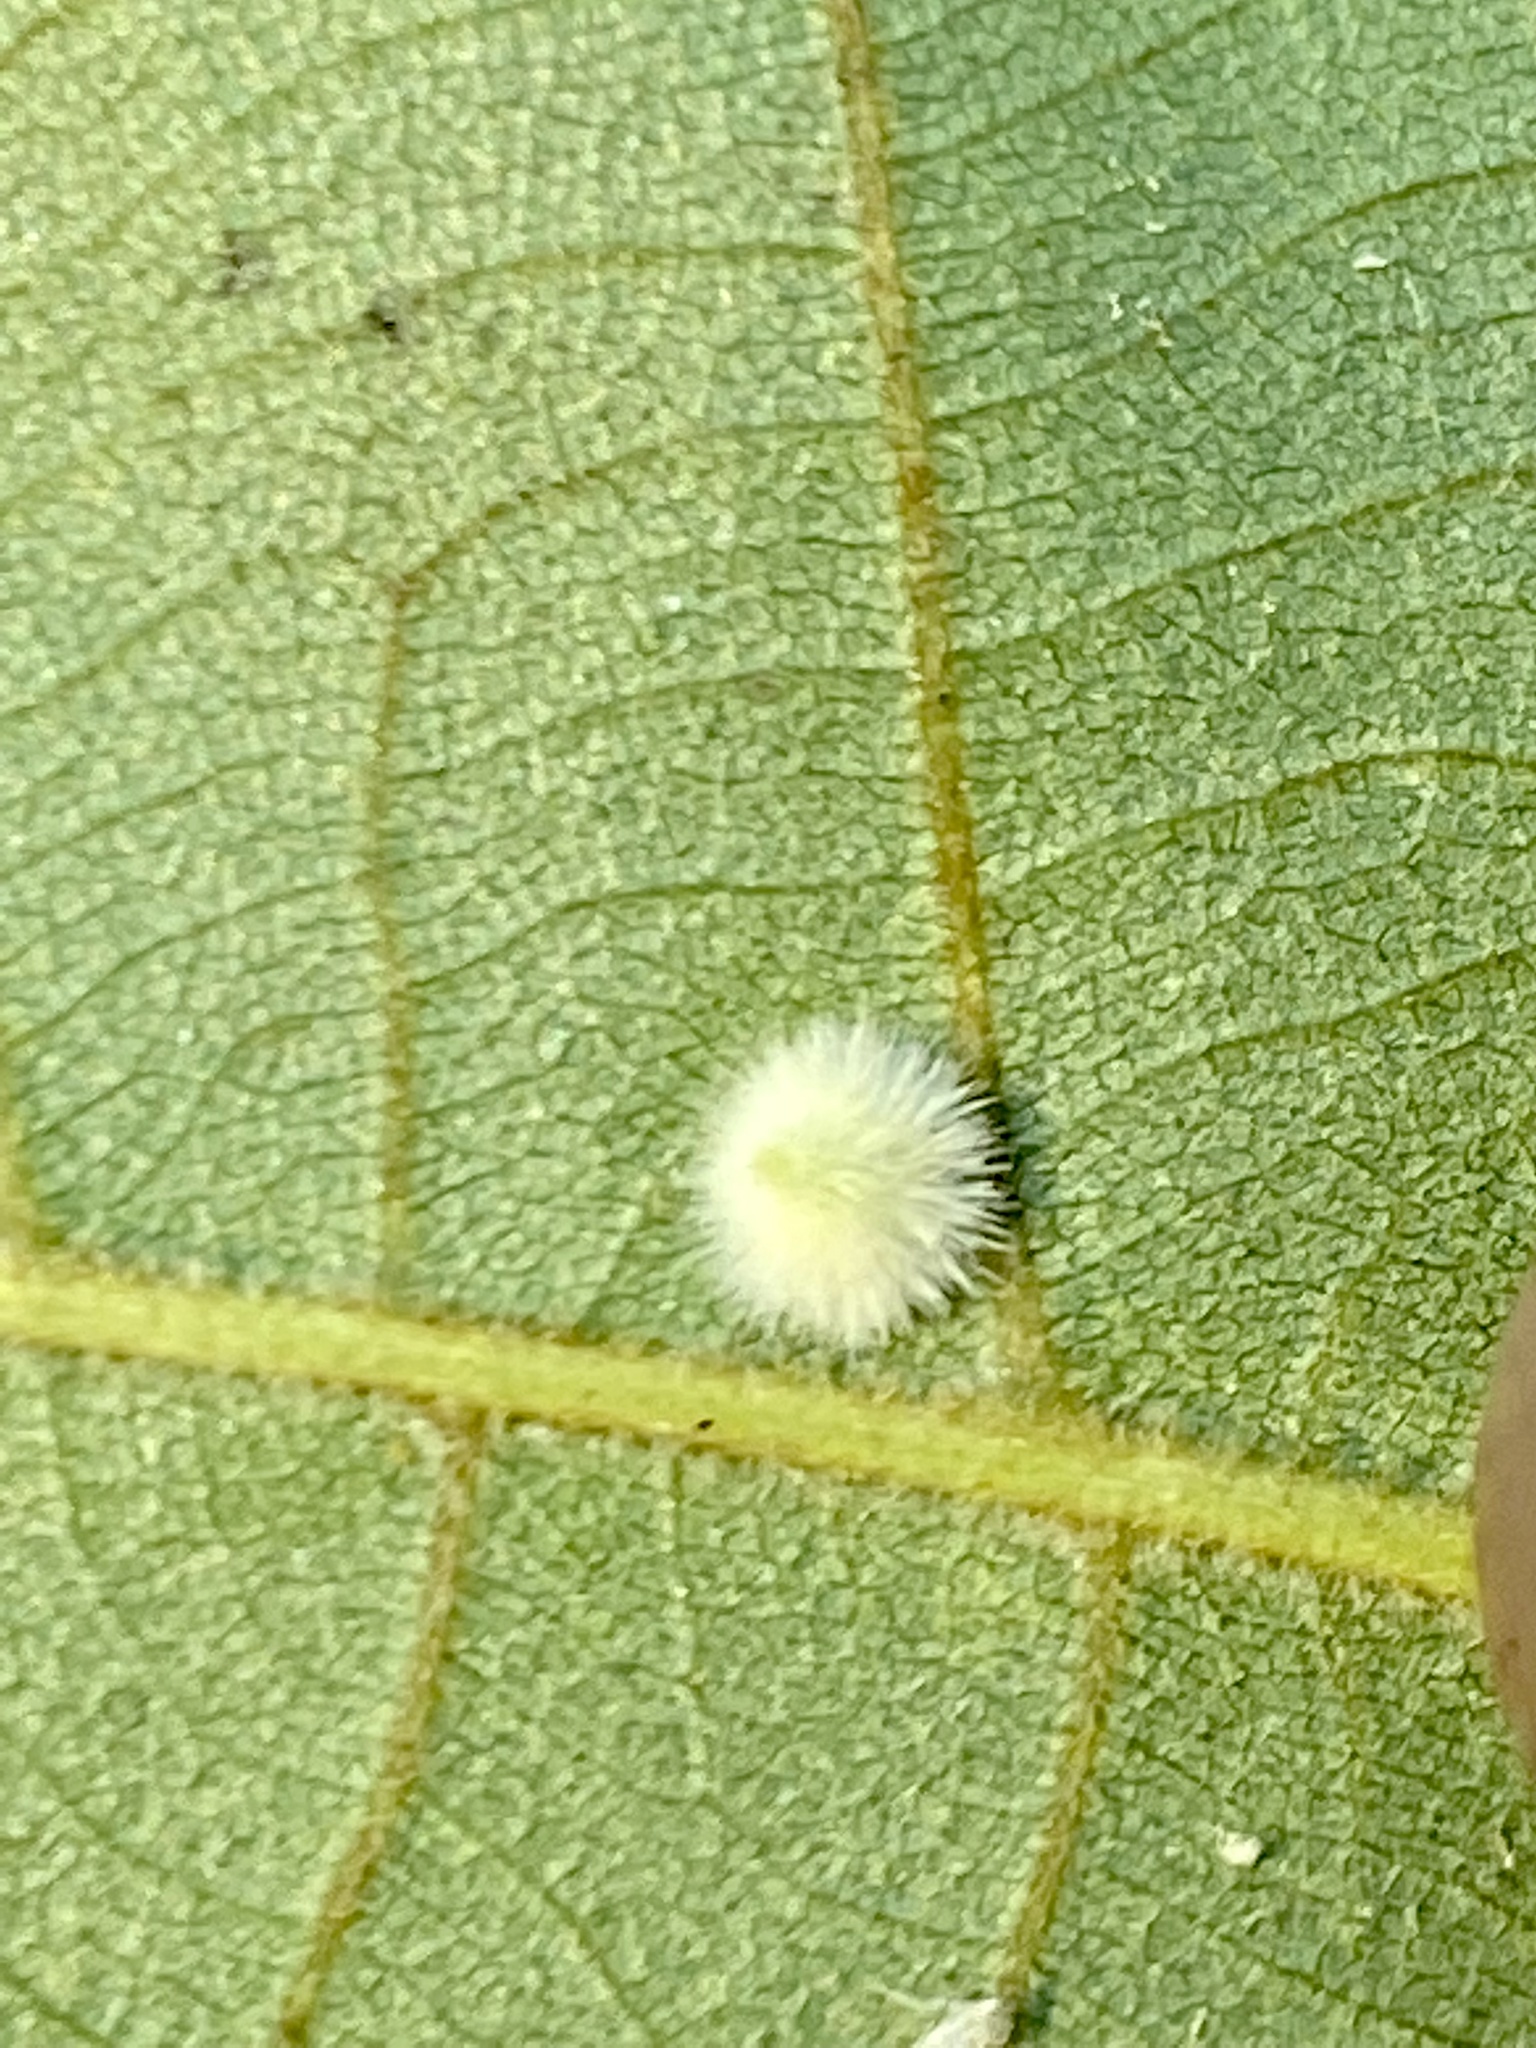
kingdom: Animalia
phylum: Arthropoda
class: Insecta
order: Diptera
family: Cecidomyiidae
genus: Caryomyia
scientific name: Caryomyia holotricha
